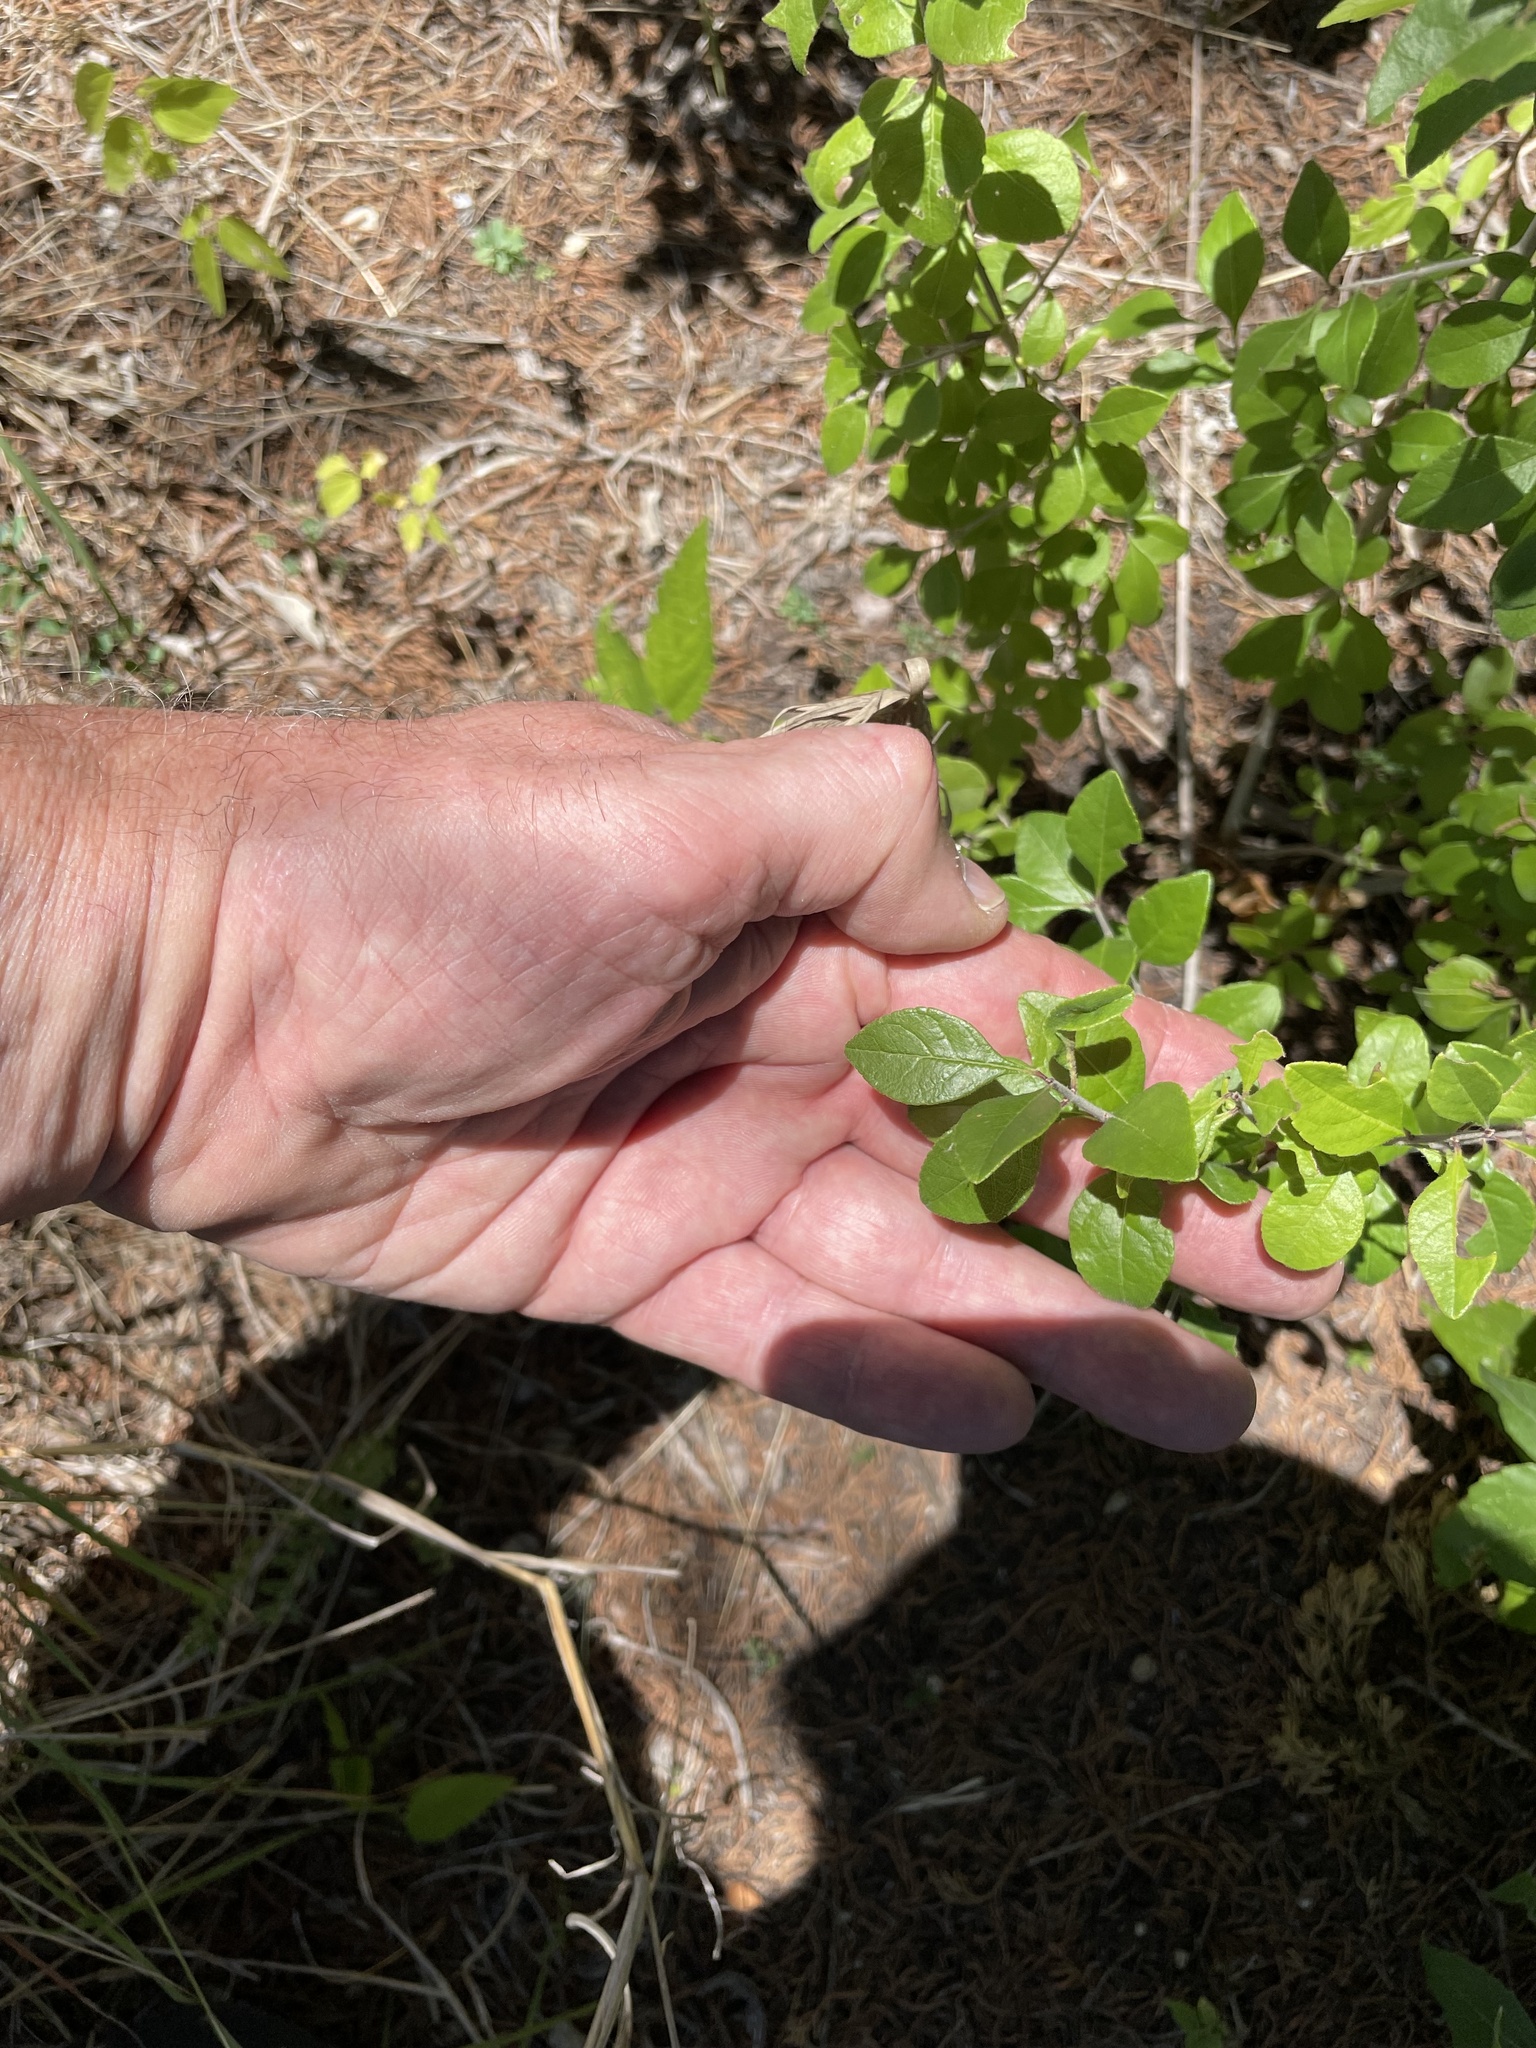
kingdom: Plantae
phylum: Tracheophyta
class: Magnoliopsida
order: Lamiales
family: Oleaceae
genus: Forestiera
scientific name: Forestiera pubescens
